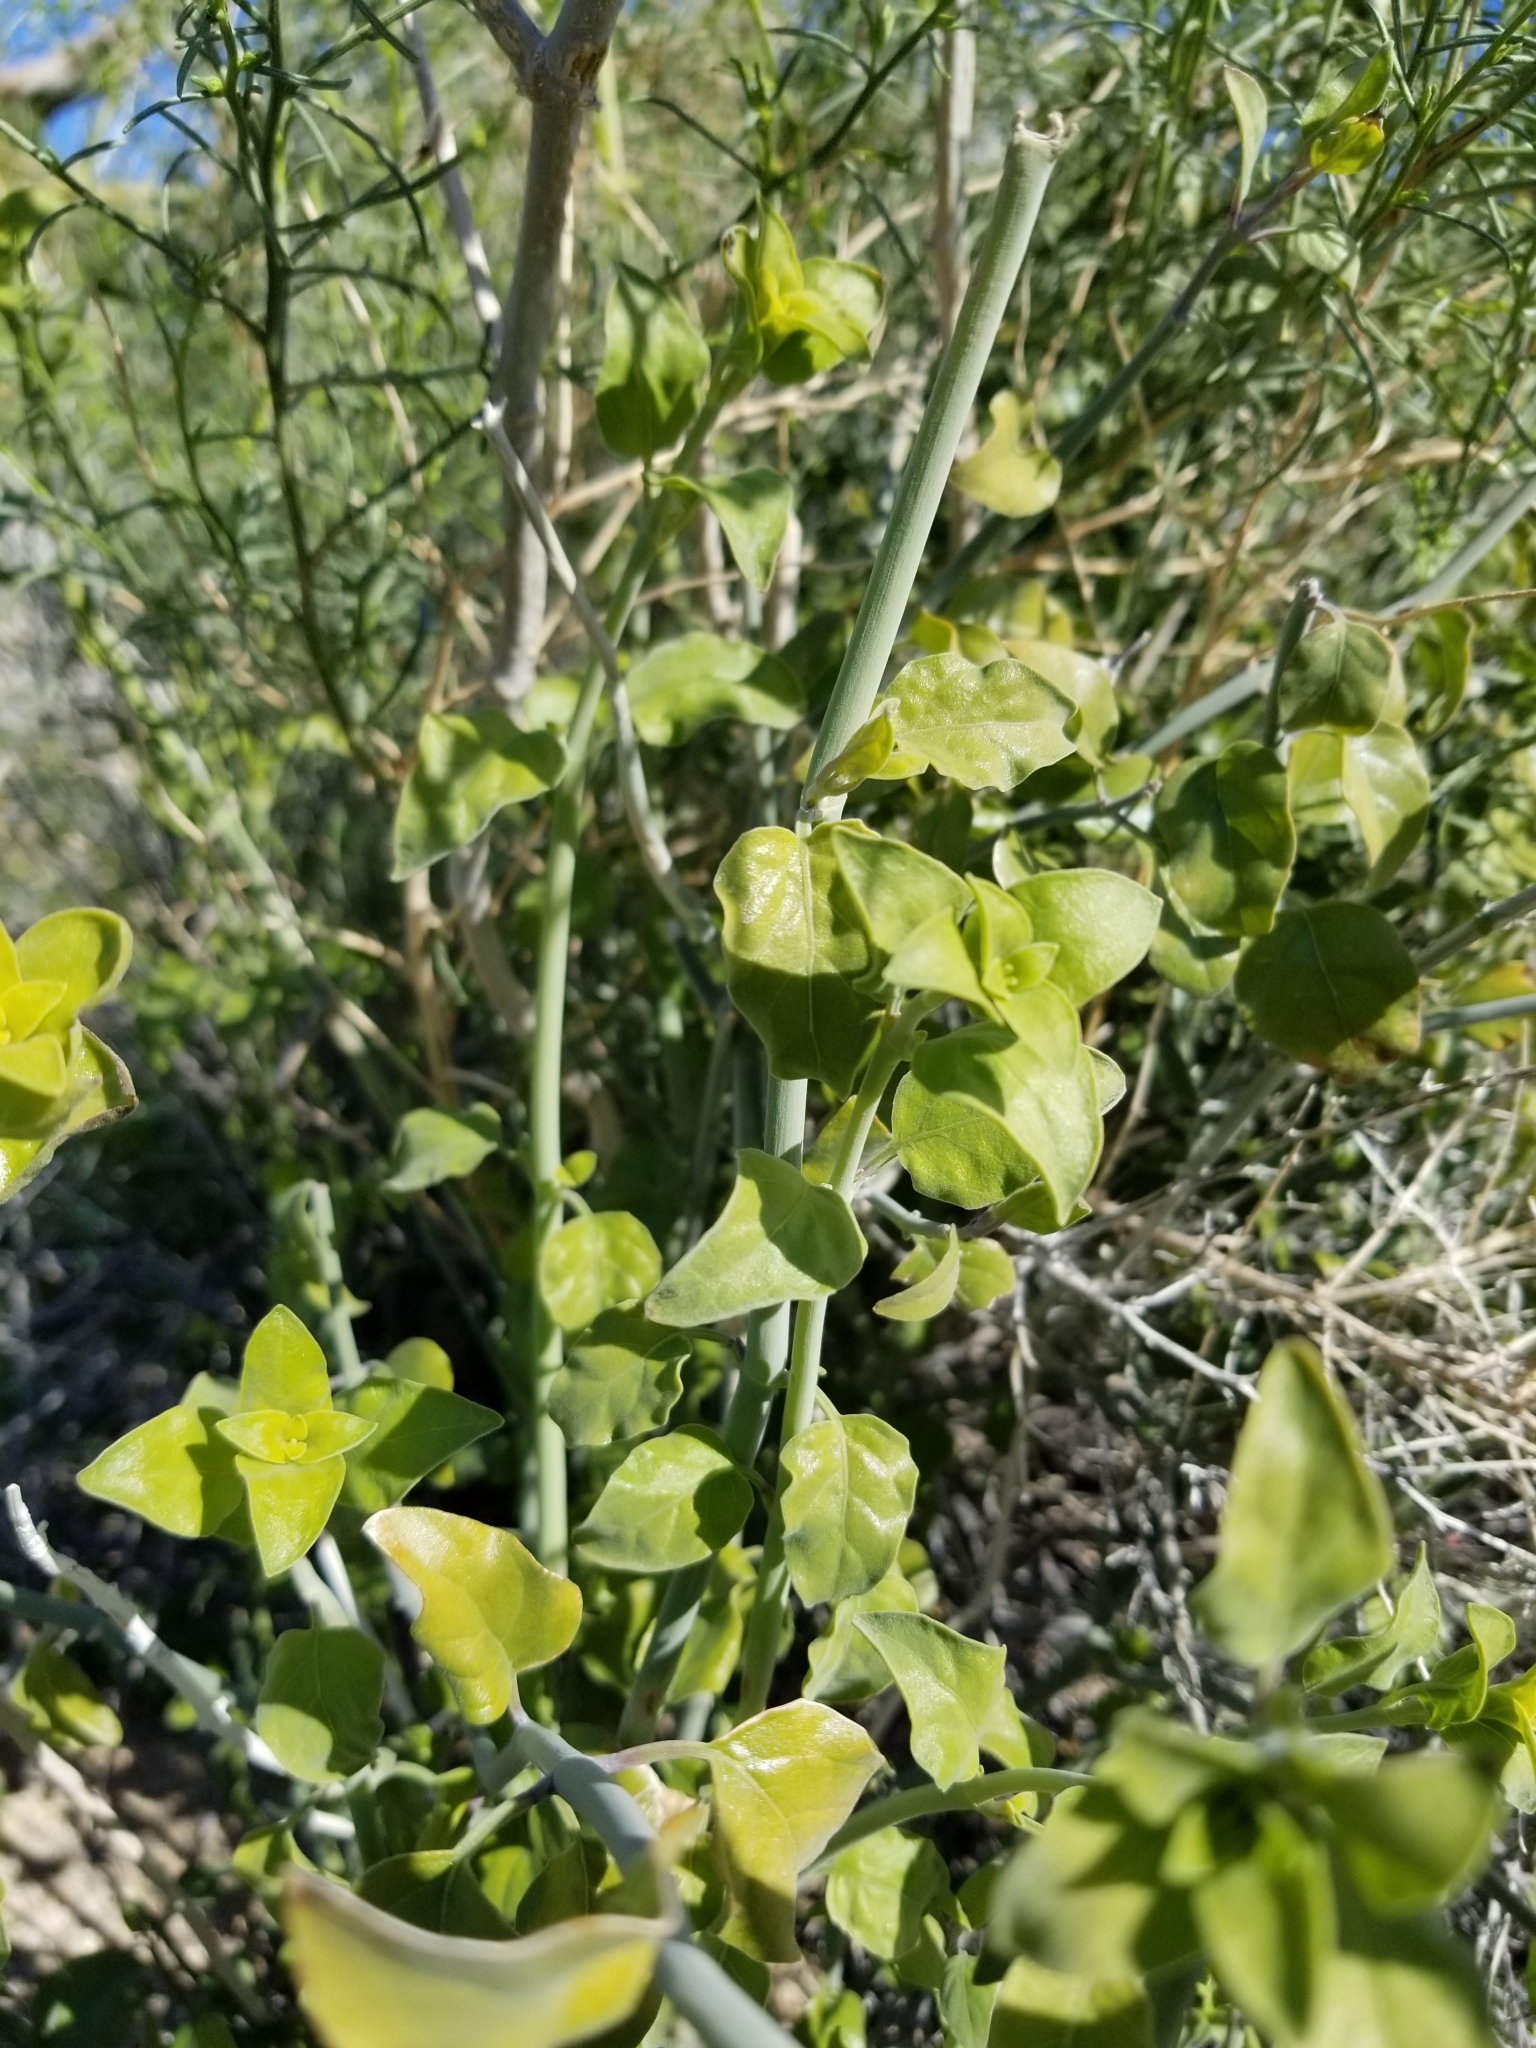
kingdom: Plantae
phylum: Tracheophyta
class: Magnoliopsida
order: Lamiales
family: Acanthaceae
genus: Justicia
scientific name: Justicia californica
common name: Chuparosa-honeysuckle
